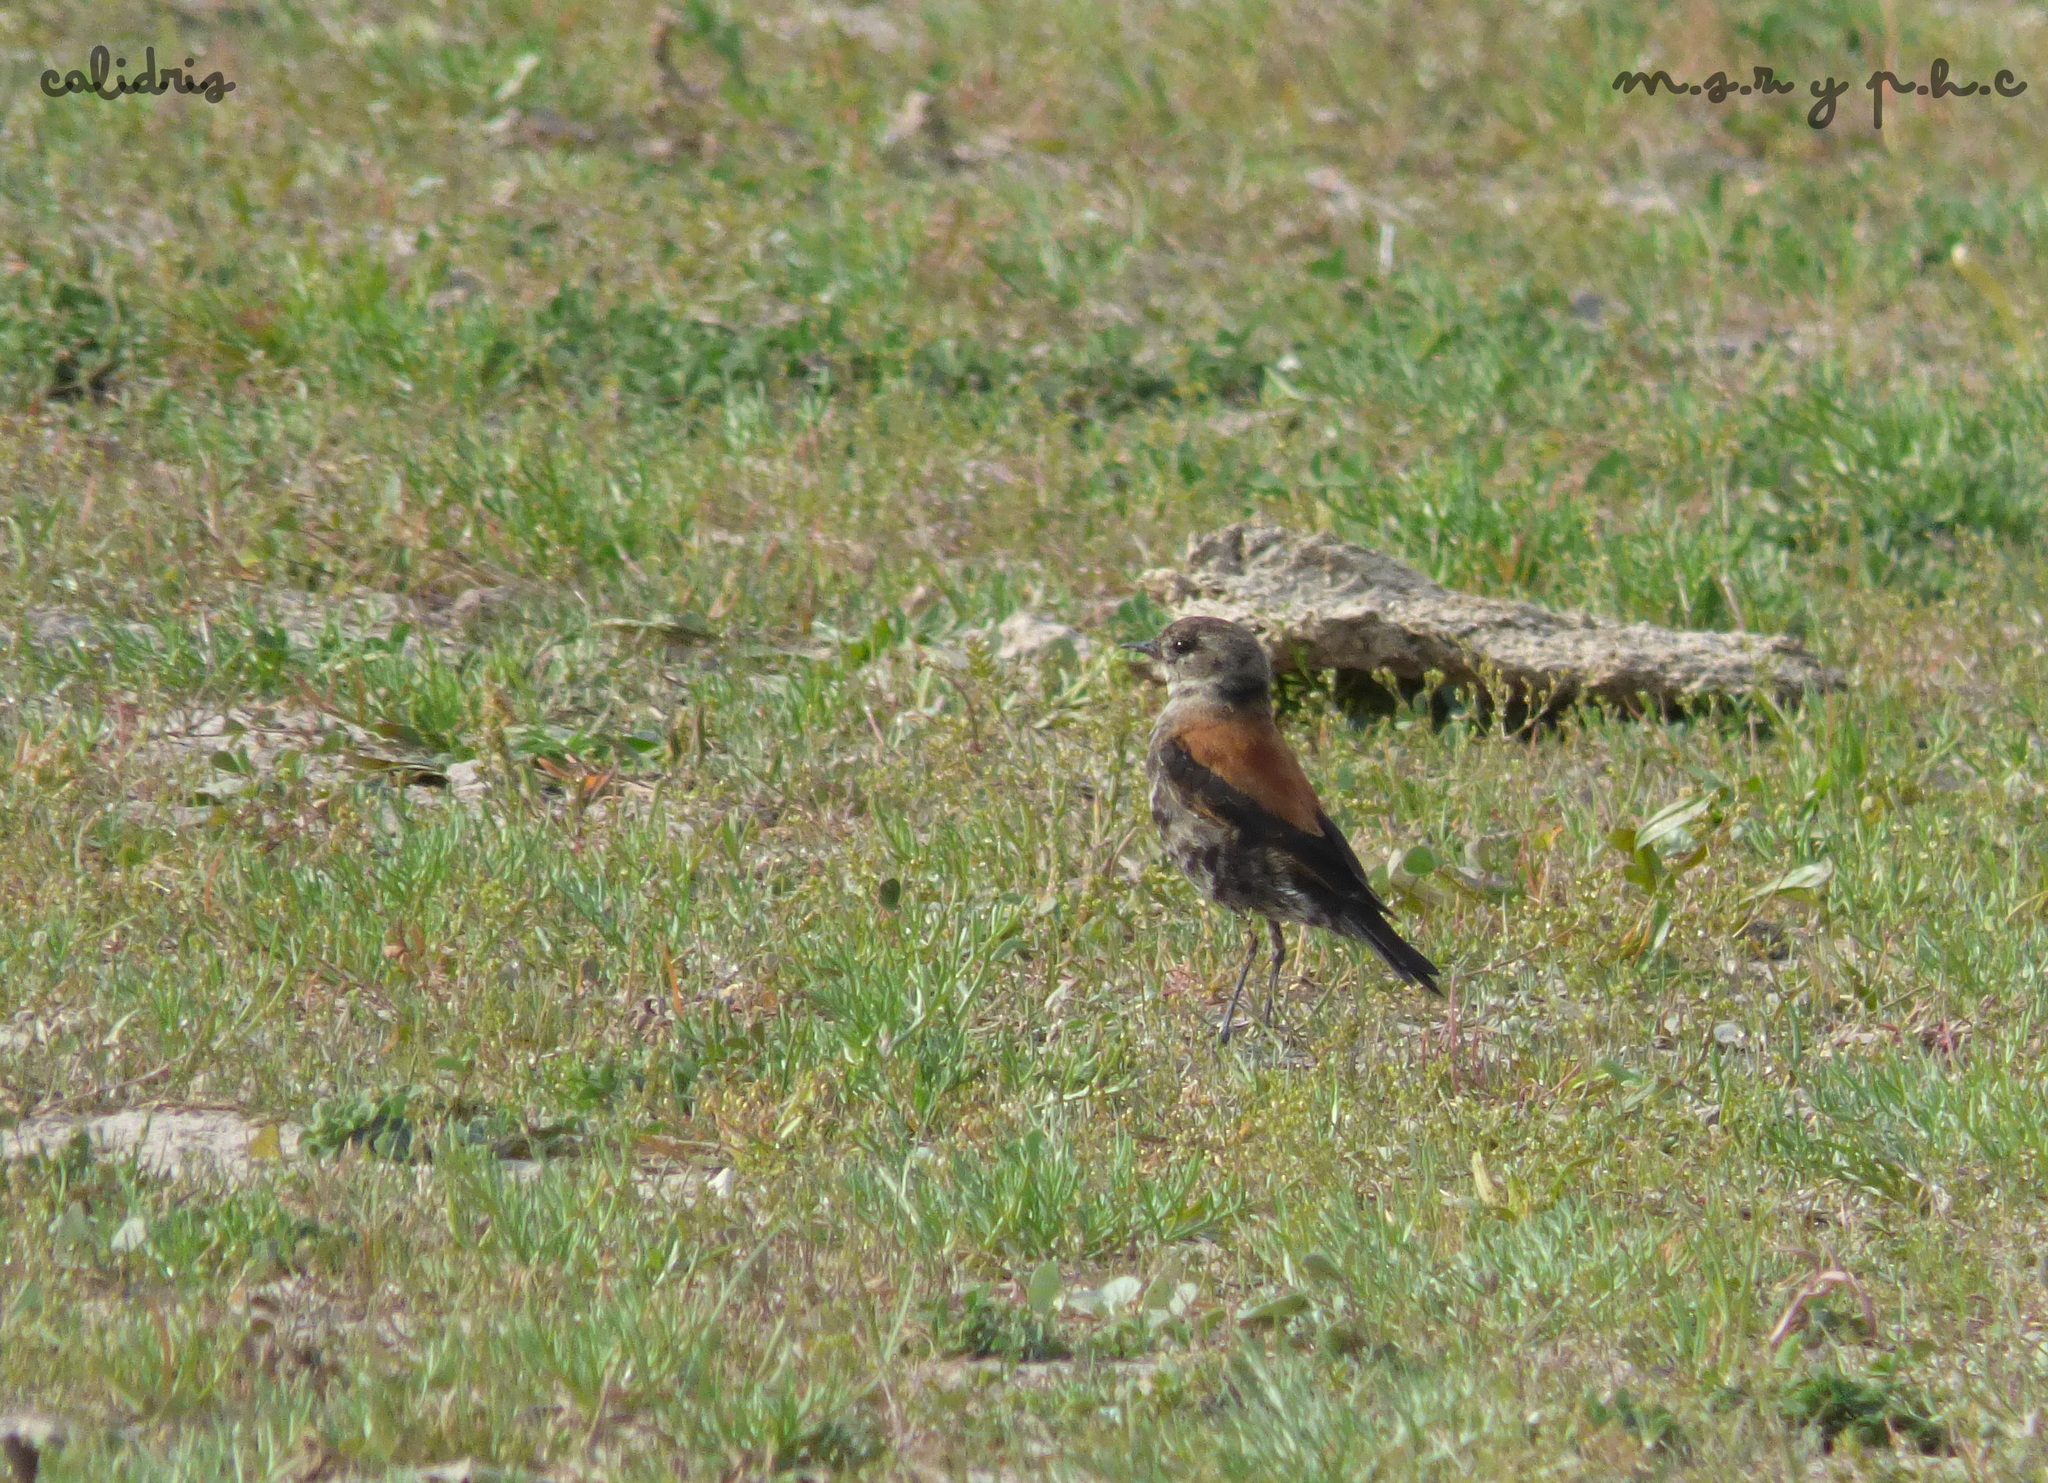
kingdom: Animalia
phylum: Chordata
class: Aves
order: Passeriformes
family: Tyrannidae
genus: Lessonia
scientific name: Lessonia rufa
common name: Austral negrito
